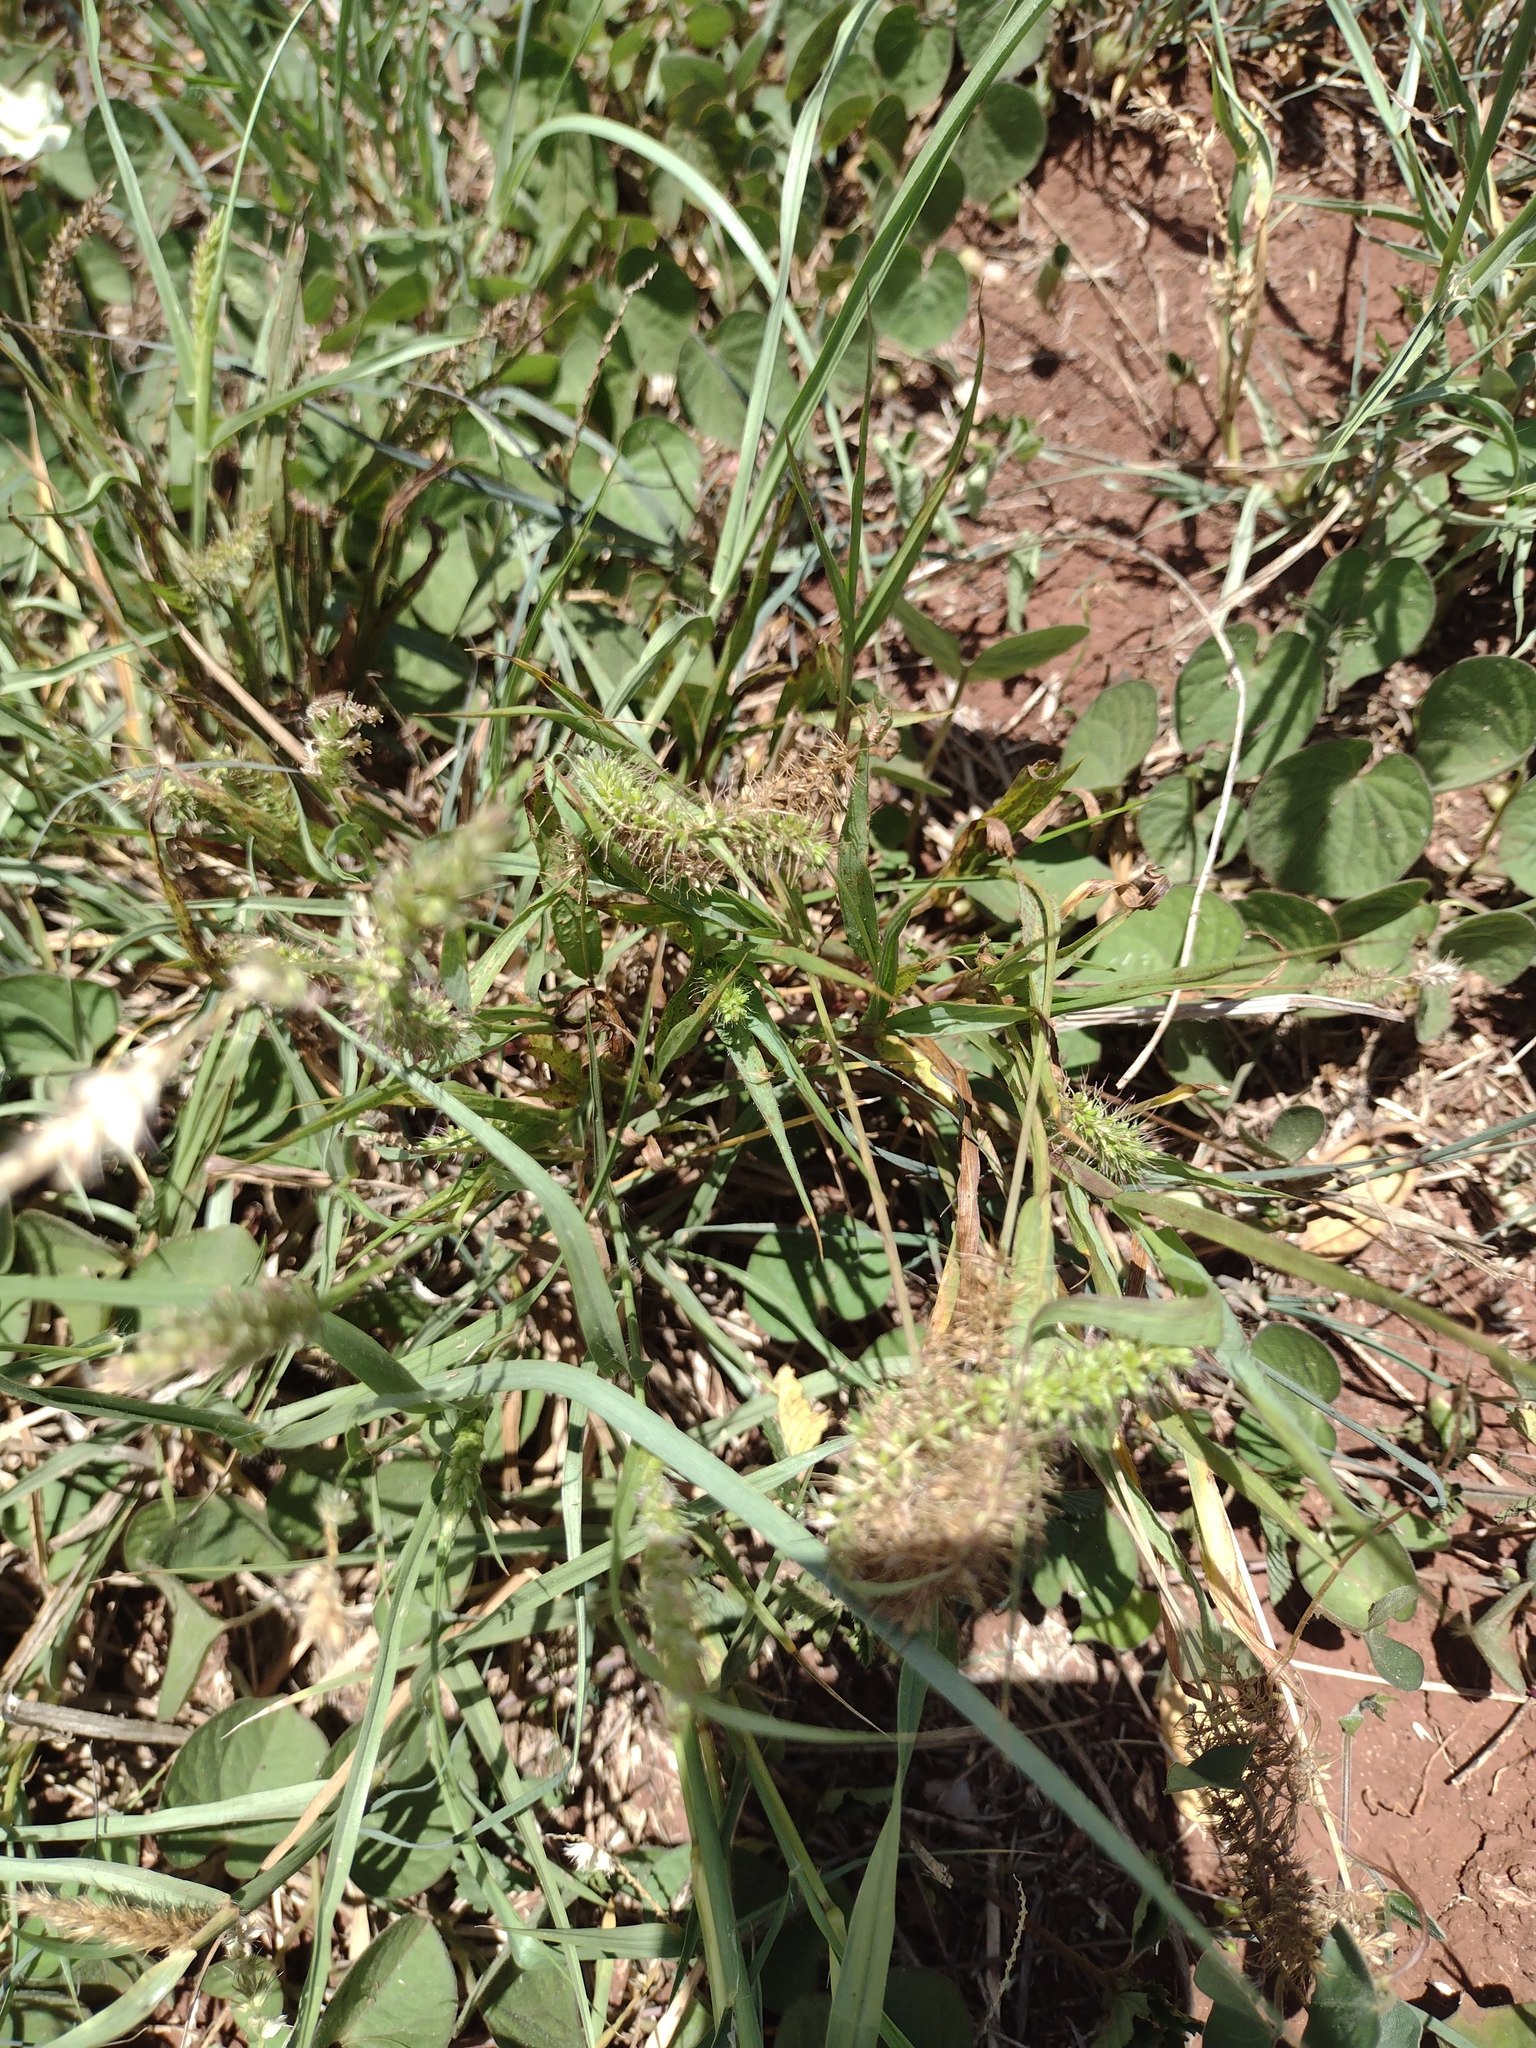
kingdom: Plantae
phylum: Tracheophyta
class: Liliopsida
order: Poales
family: Poaceae
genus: Setaria
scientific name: Setaria adhaerens
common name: Adherent bristle-grass
